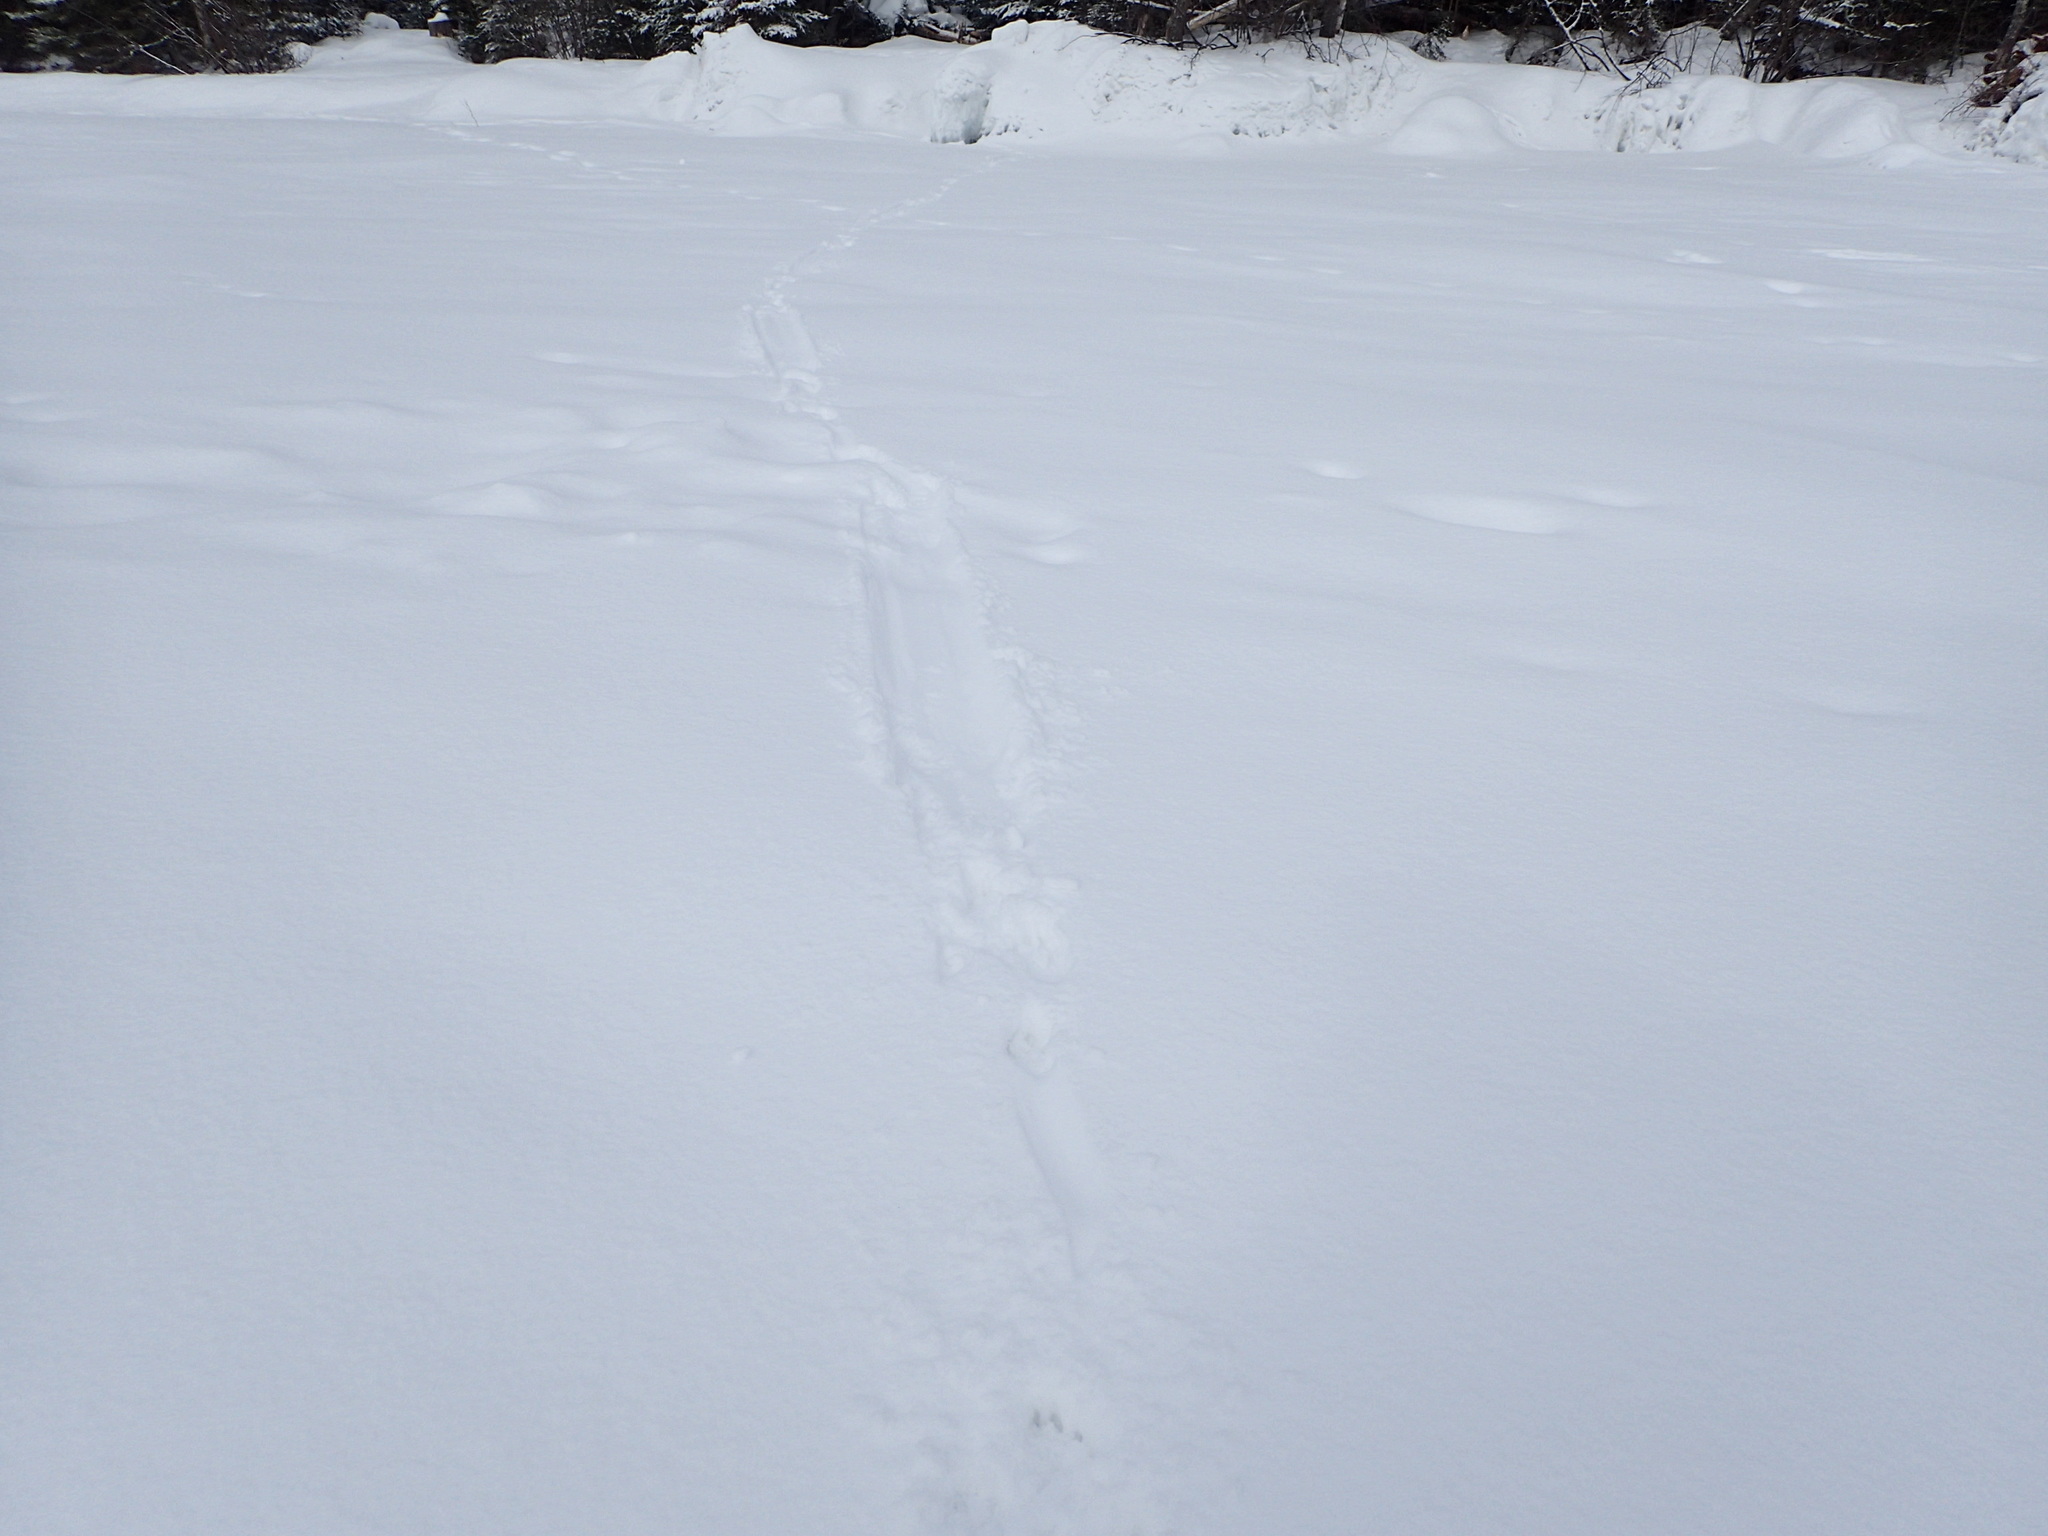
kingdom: Animalia
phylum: Chordata
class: Mammalia
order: Carnivora
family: Mustelidae
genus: Lontra
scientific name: Lontra canadensis
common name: North american river otter
